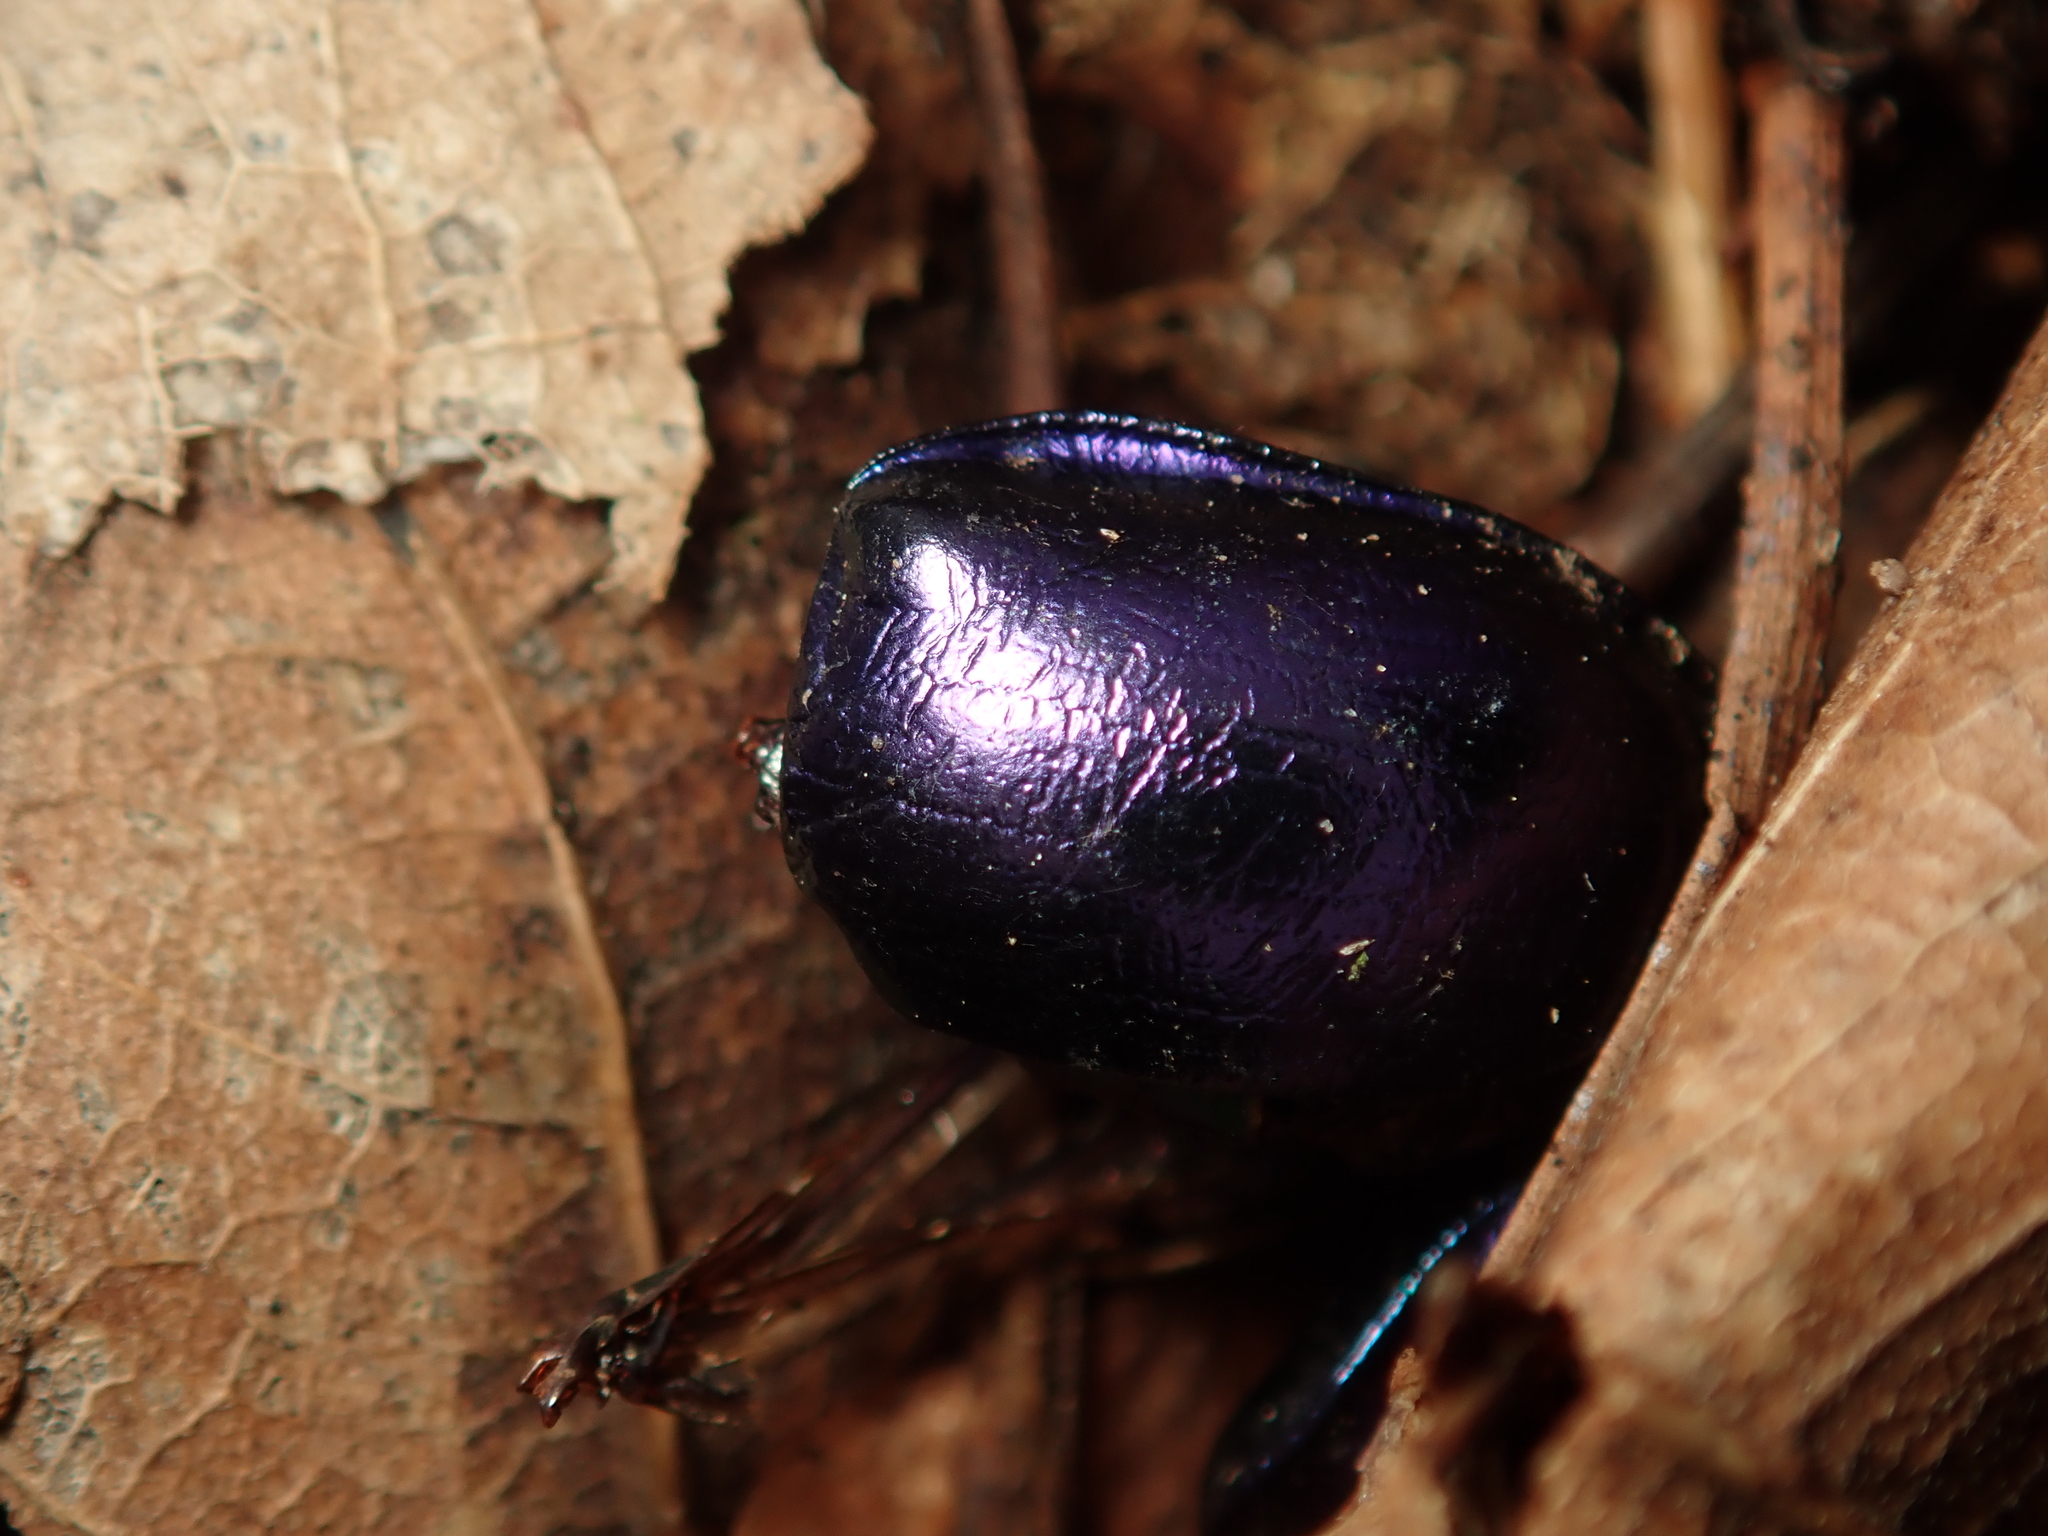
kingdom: Animalia
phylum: Arthropoda
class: Insecta
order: Coleoptera
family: Geotrupidae
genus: Trypocopris
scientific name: Trypocopris vernalis
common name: Spring dumbledor
